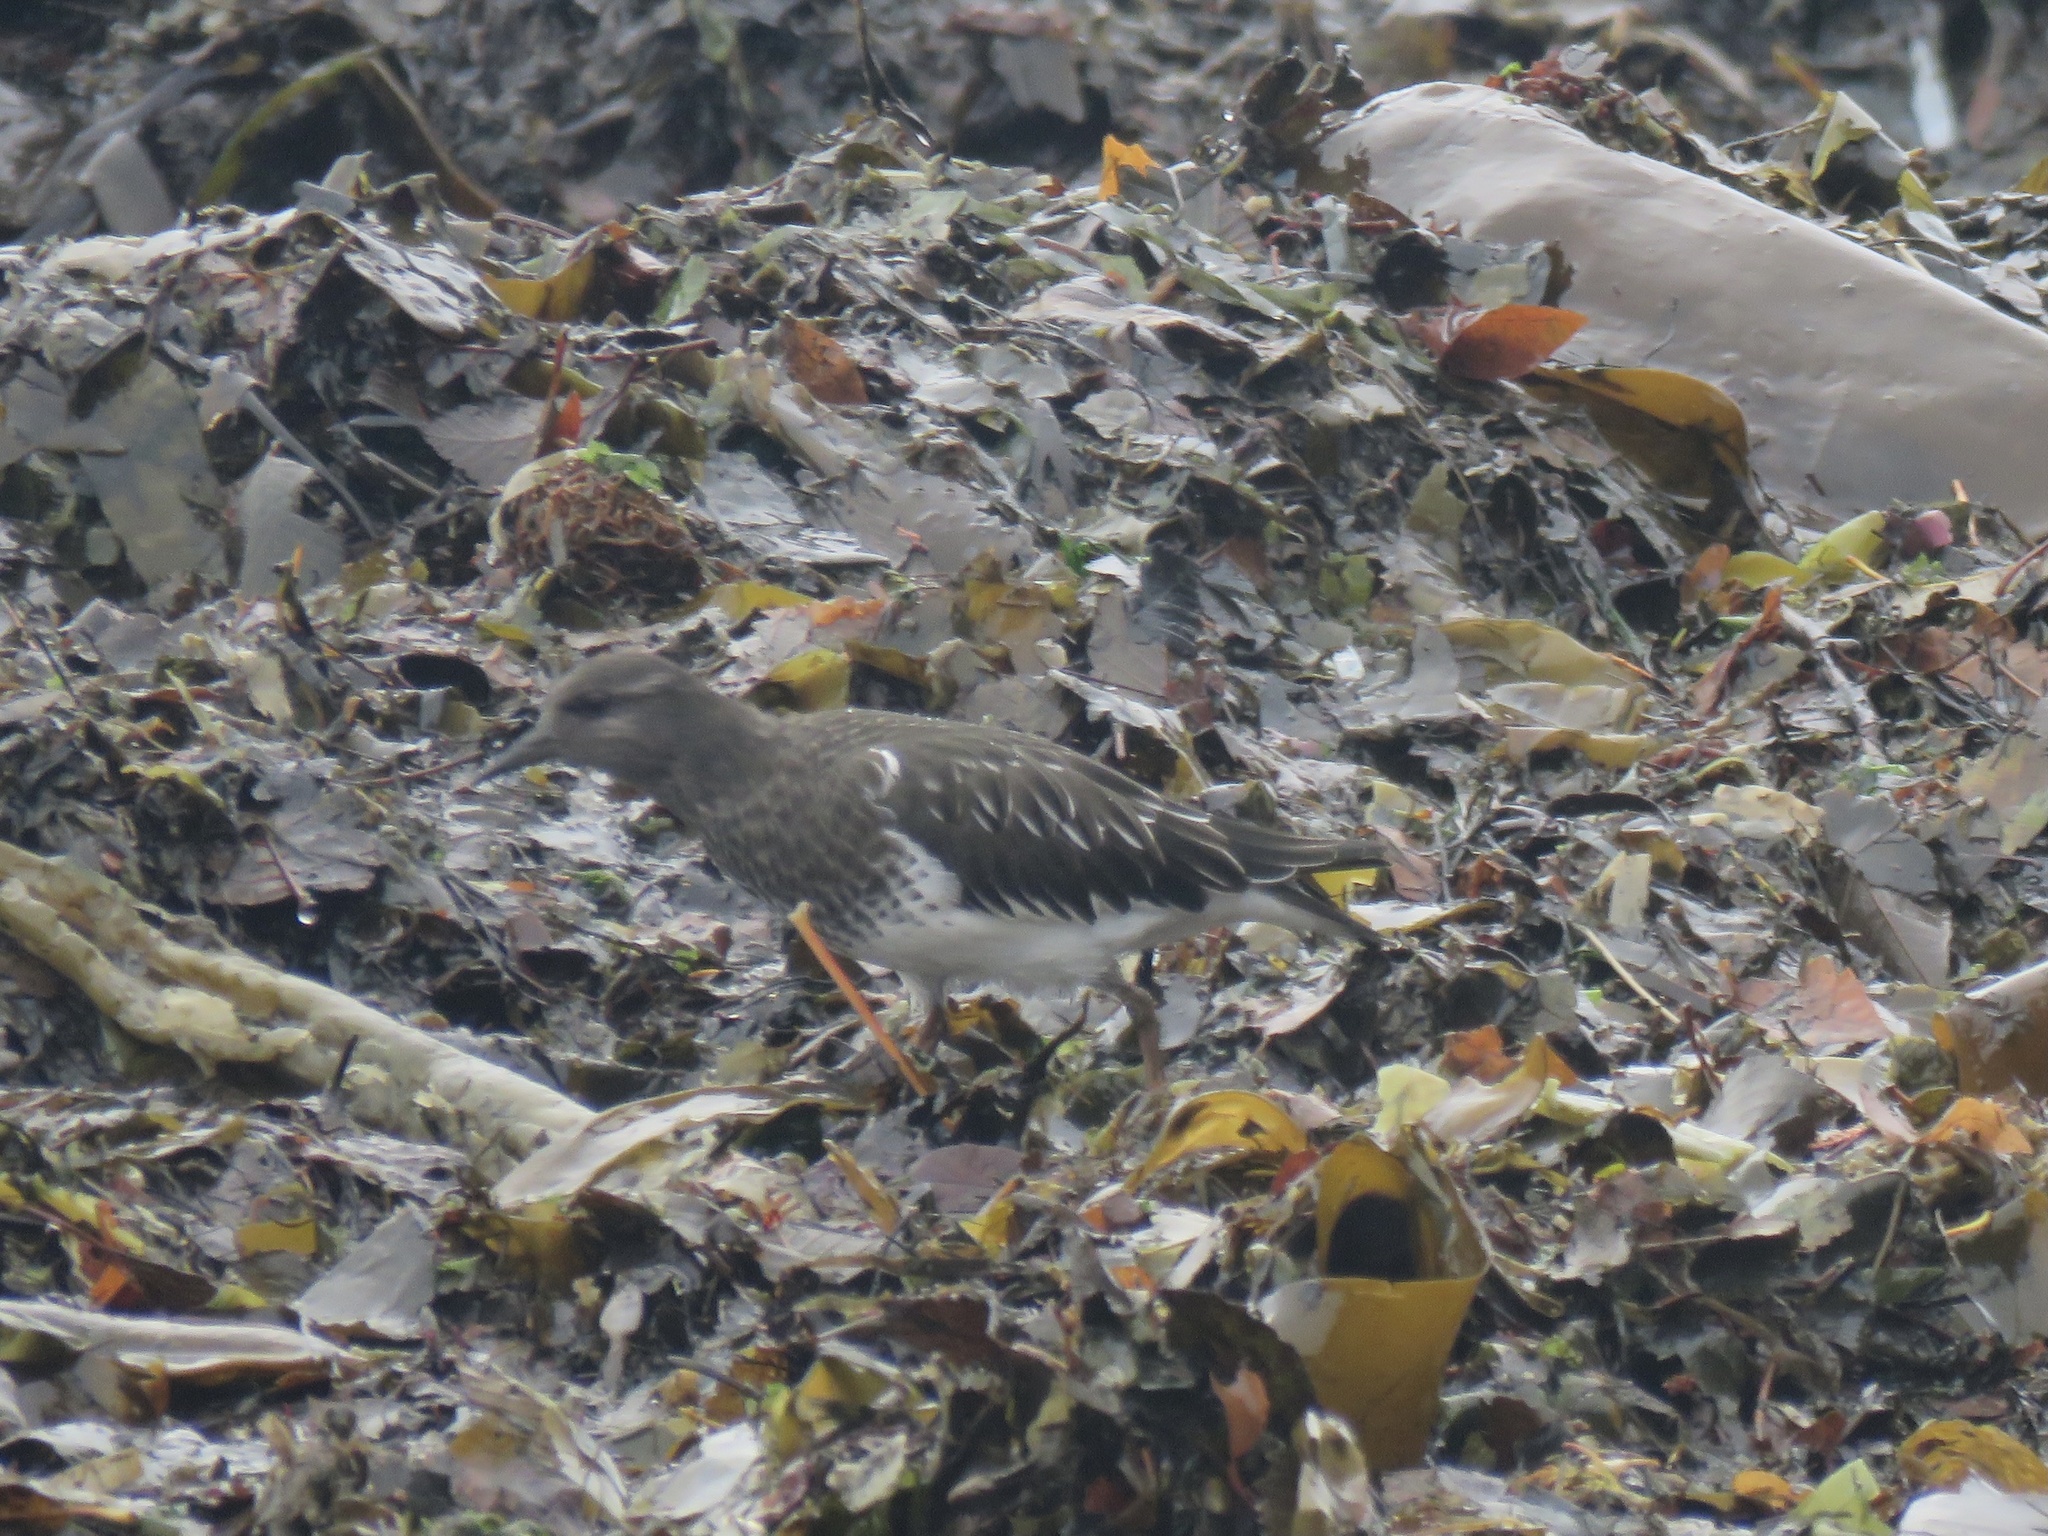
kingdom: Animalia
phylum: Chordata
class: Aves
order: Charadriiformes
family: Scolopacidae
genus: Arenaria
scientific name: Arenaria melanocephala
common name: Black turnstone
